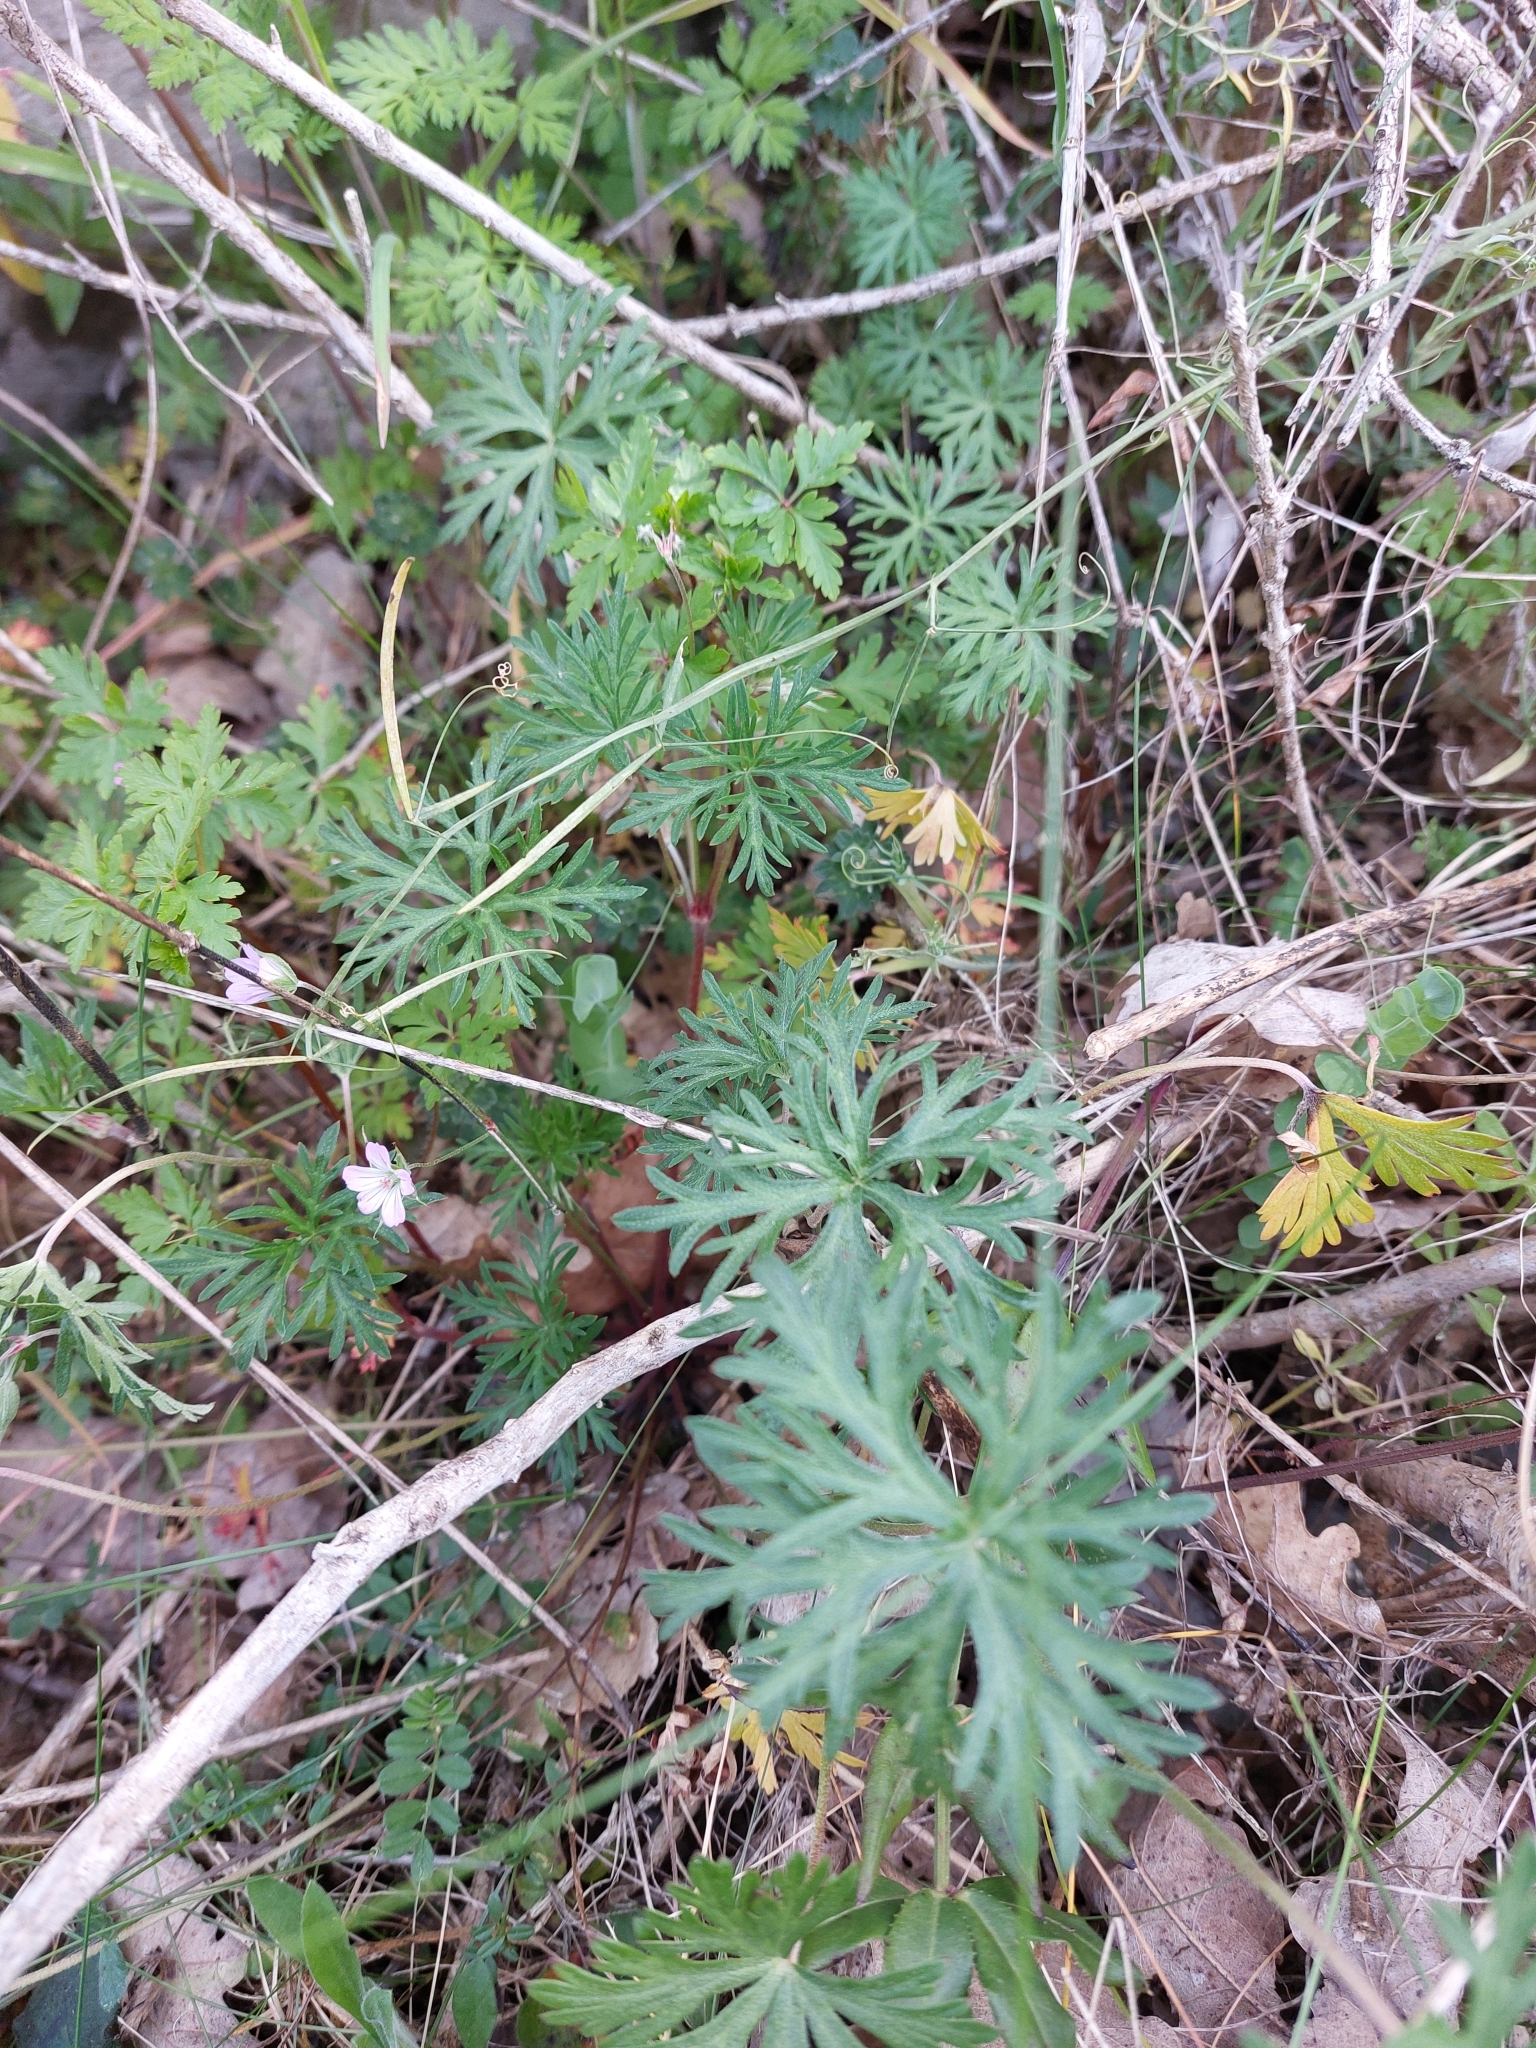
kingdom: Plantae
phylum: Tracheophyta
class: Magnoliopsida
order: Geraniales
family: Geraniaceae
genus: Geranium
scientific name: Geranium columbinum
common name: Long-stalked crane's-bill
